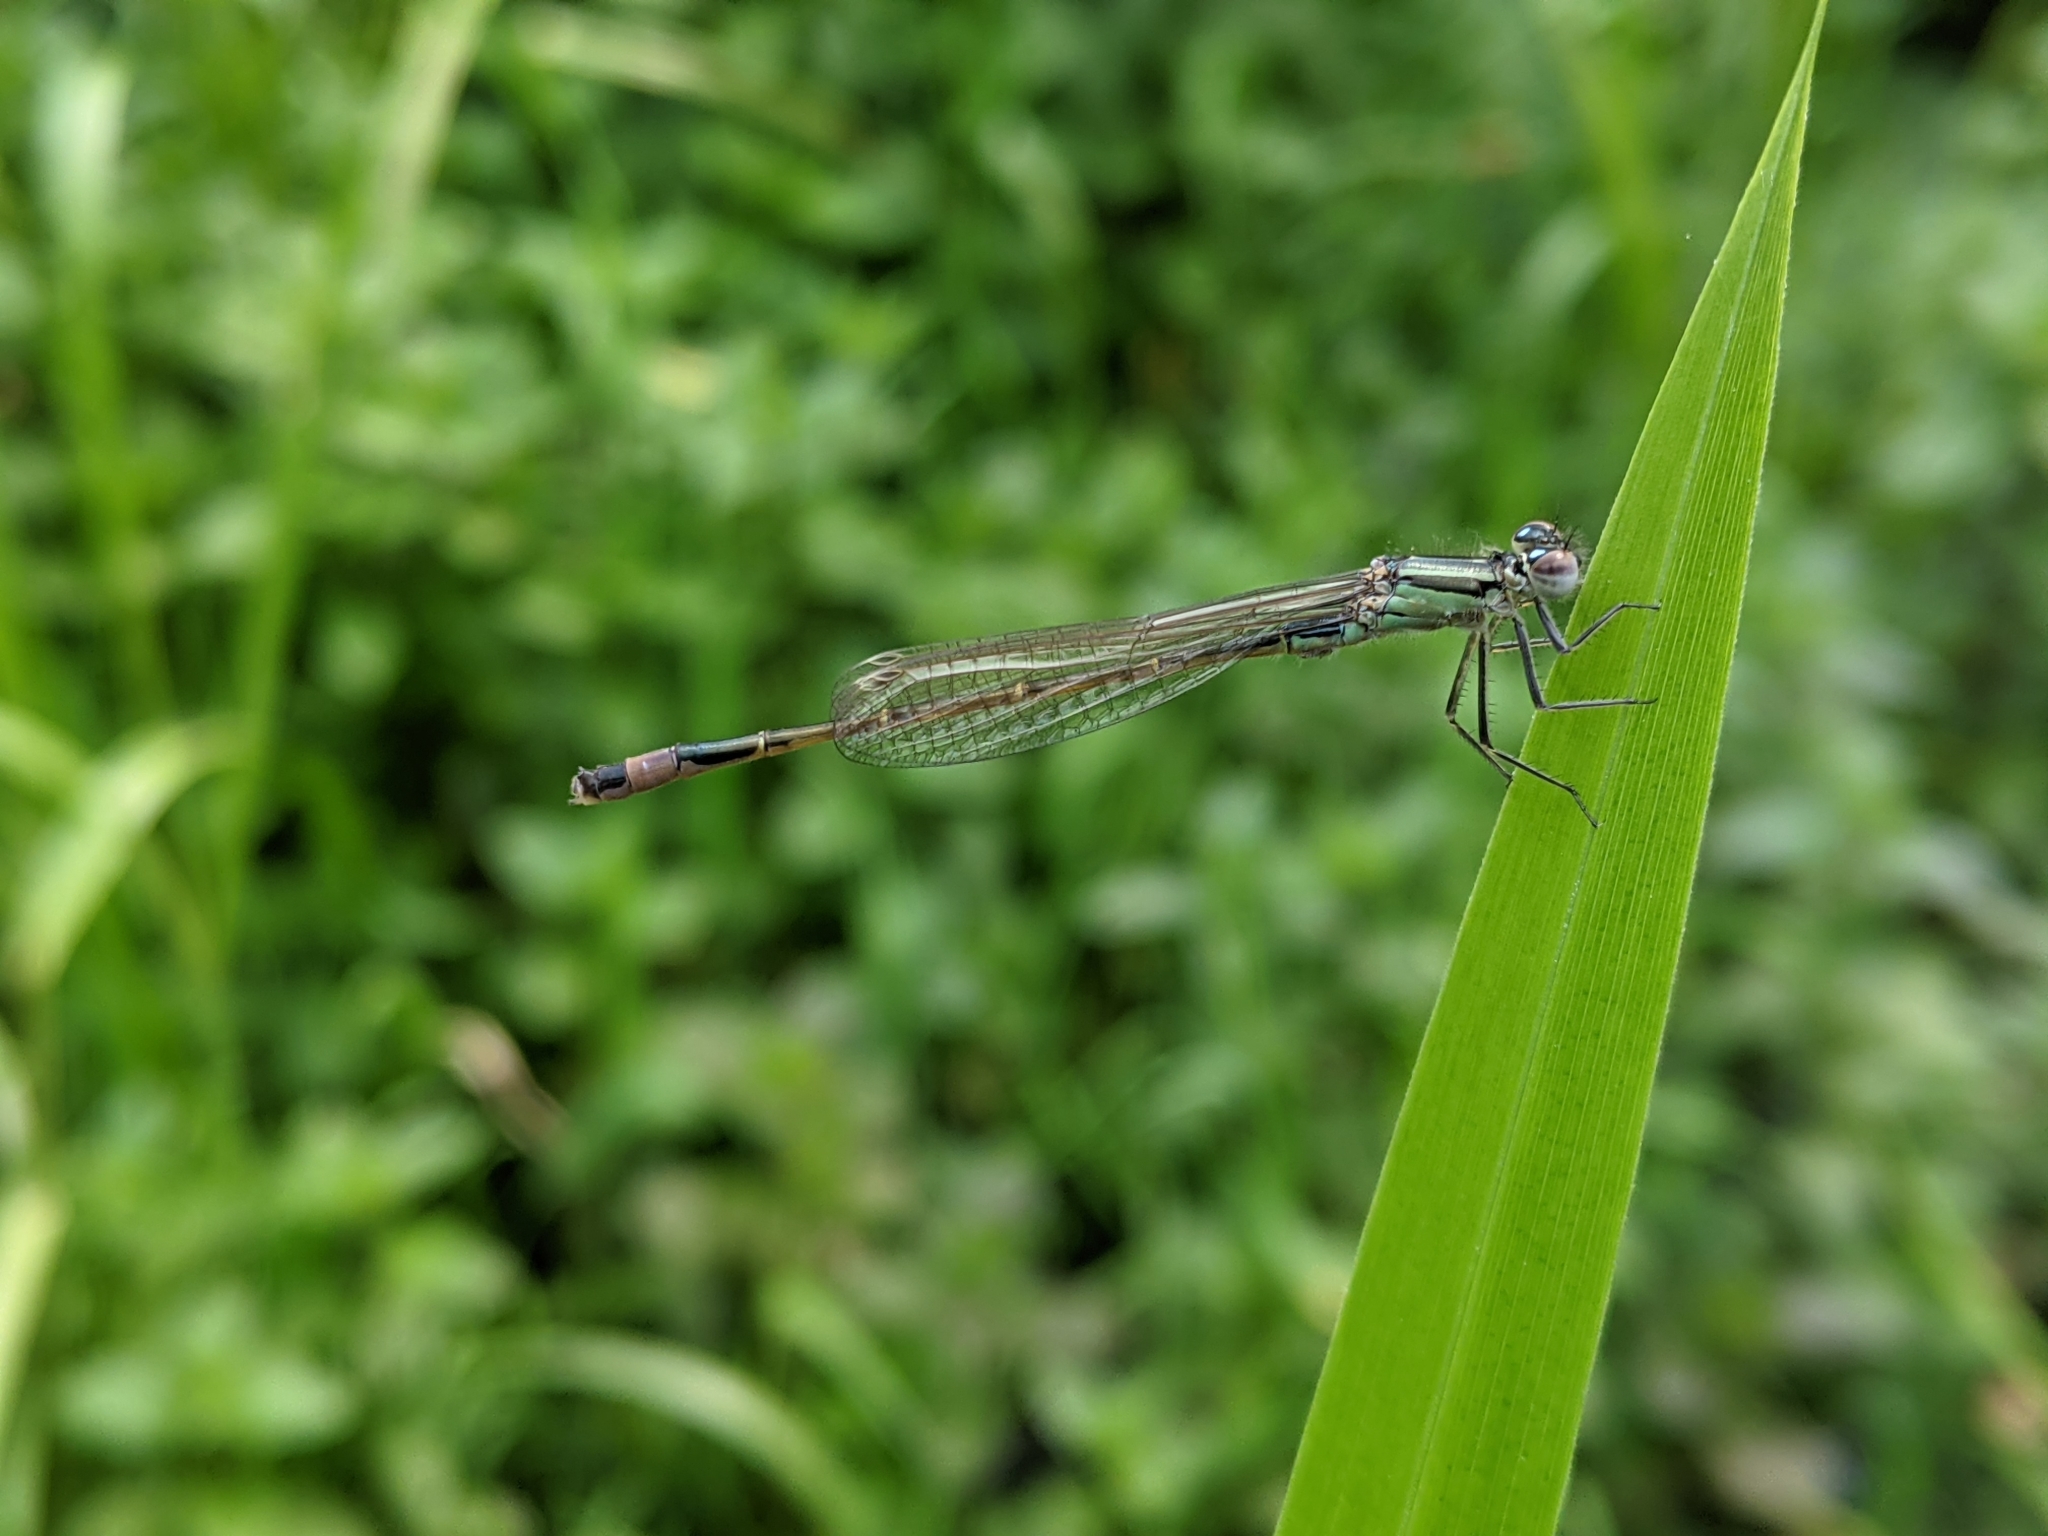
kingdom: Animalia
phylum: Arthropoda
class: Insecta
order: Odonata
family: Coenagrionidae
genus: Ischnura
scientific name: Ischnura elegans
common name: Blue-tailed damselfly
